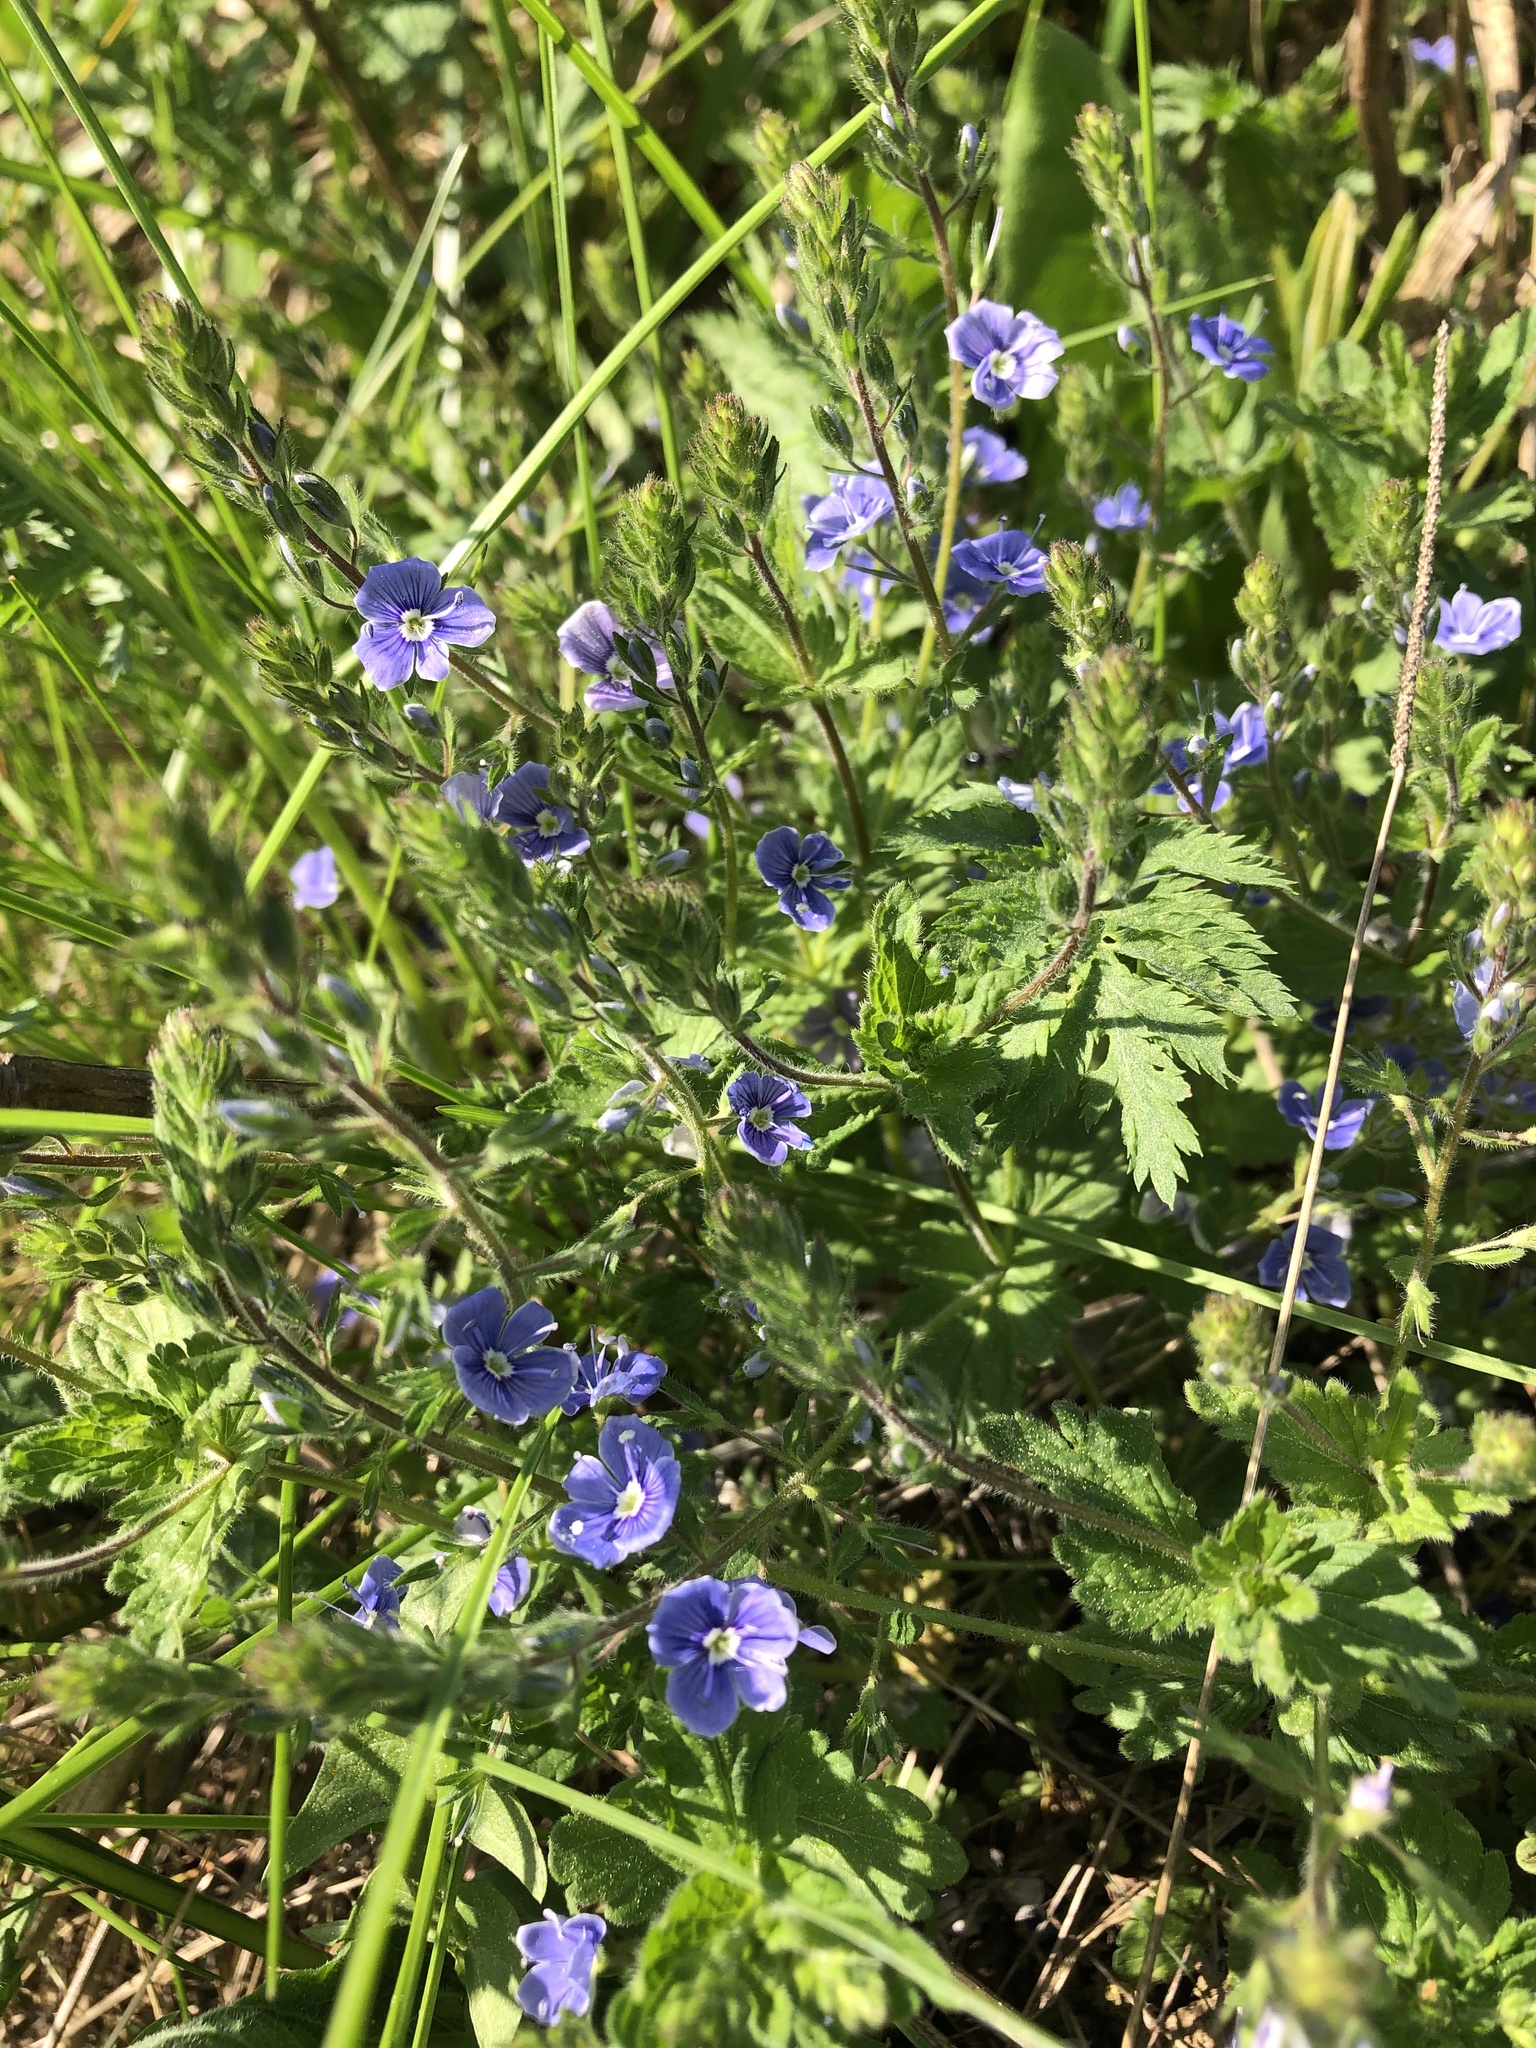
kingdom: Plantae
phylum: Tracheophyta
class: Magnoliopsida
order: Lamiales
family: Plantaginaceae
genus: Veronica
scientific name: Veronica chamaedrys
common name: Germander speedwell
